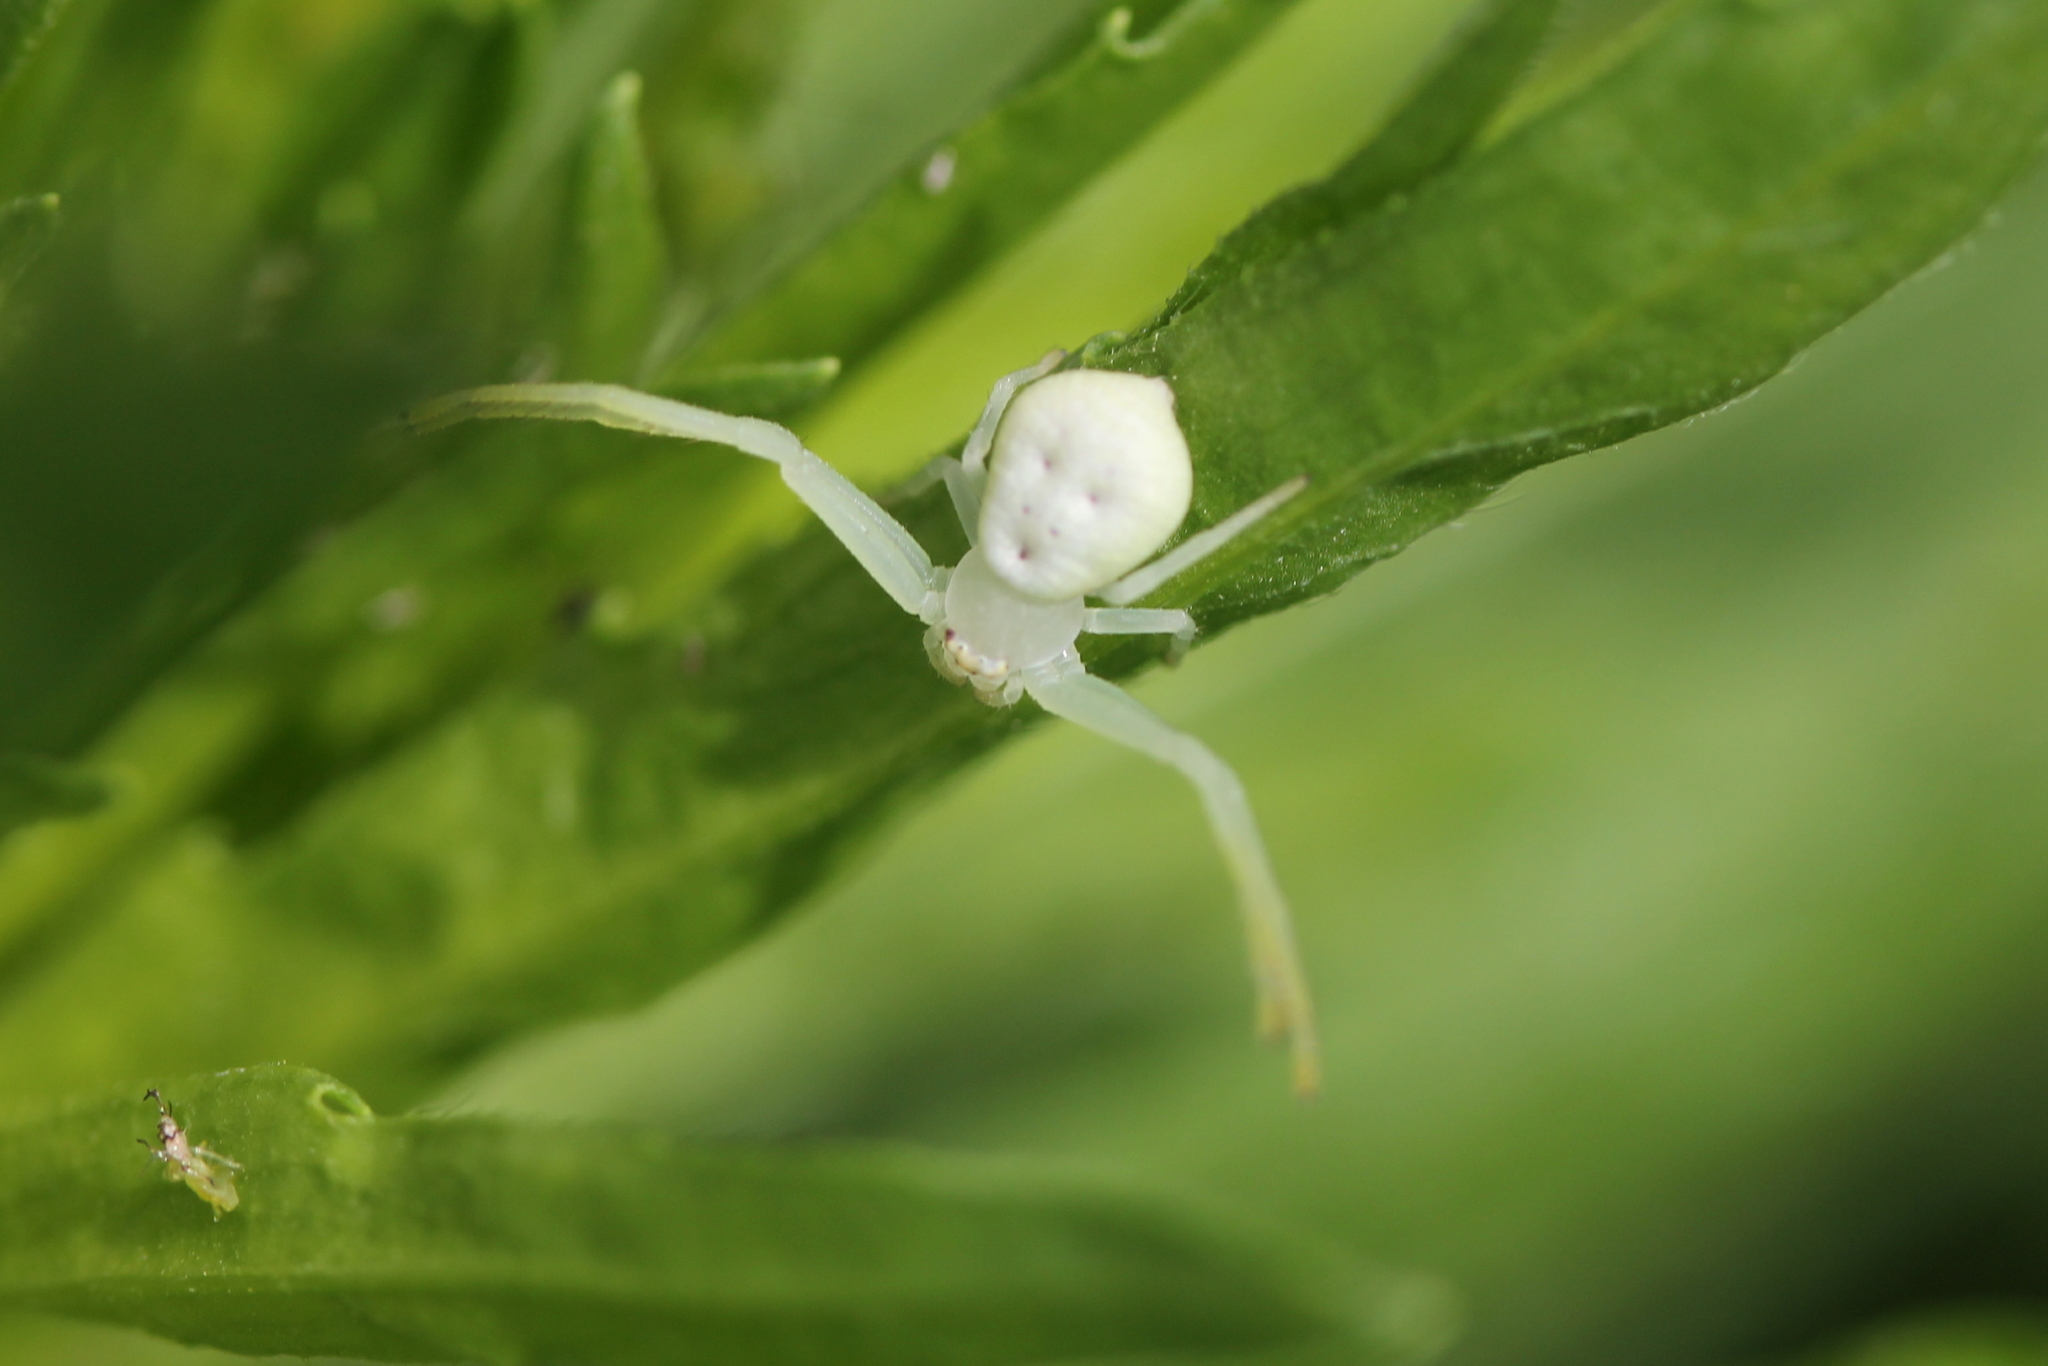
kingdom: Animalia
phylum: Arthropoda
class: Arachnida
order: Araneae
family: Thomisidae
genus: Misumessus
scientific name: Misumessus oblongus
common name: American green crab spider
